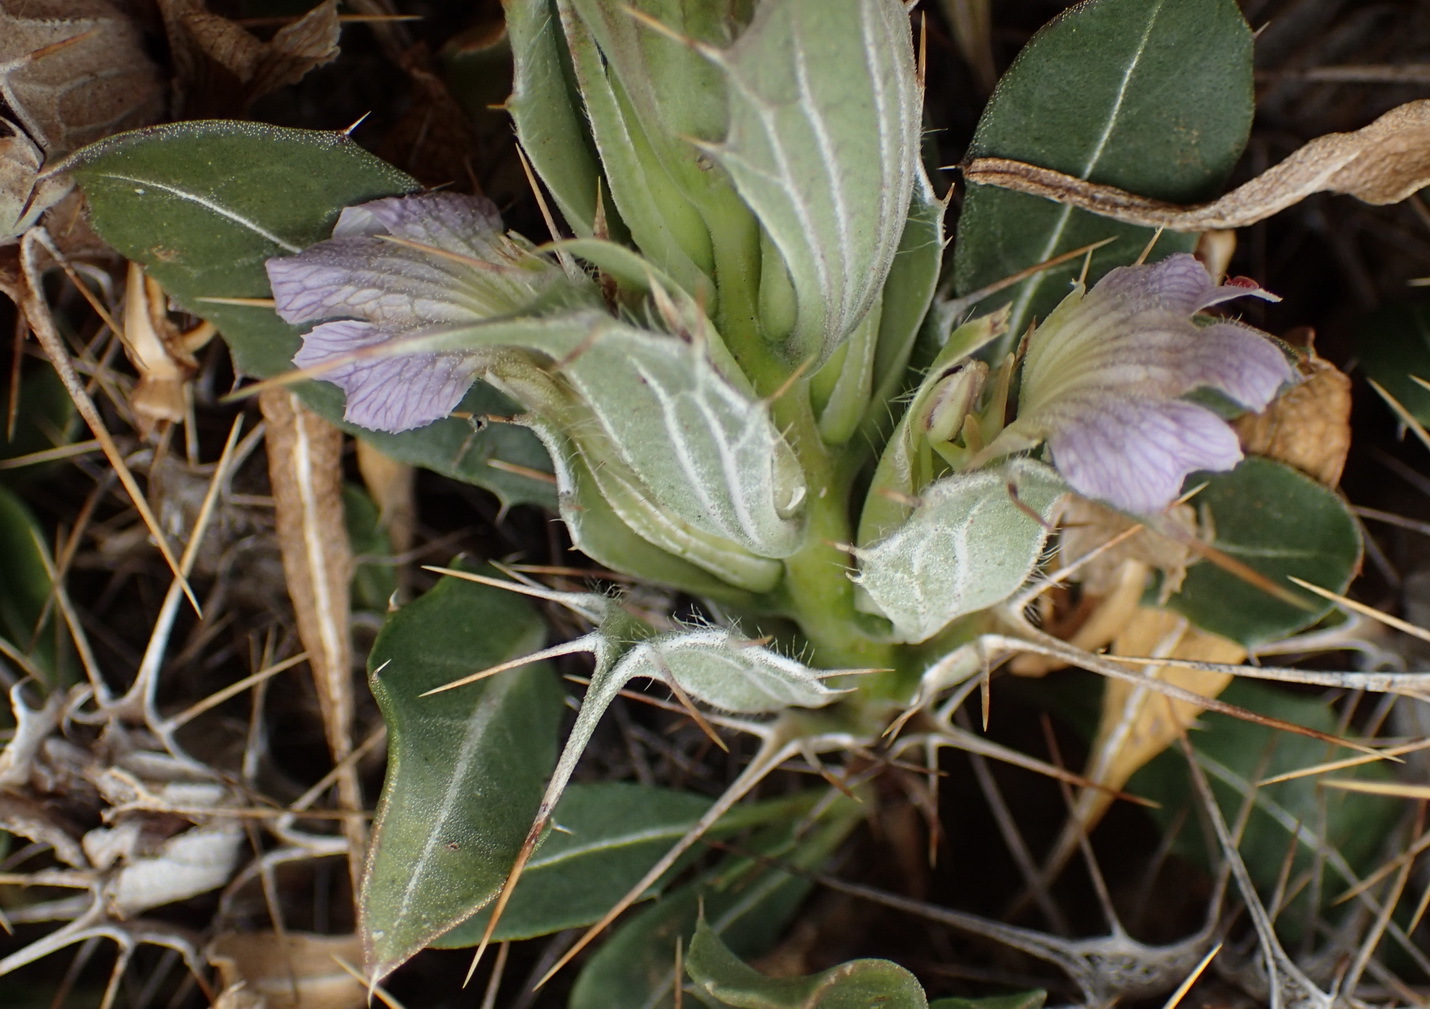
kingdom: Plantae
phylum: Tracheophyta
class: Magnoliopsida
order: Lamiales
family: Acanthaceae
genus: Blepharis
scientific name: Blepharis mitrata
